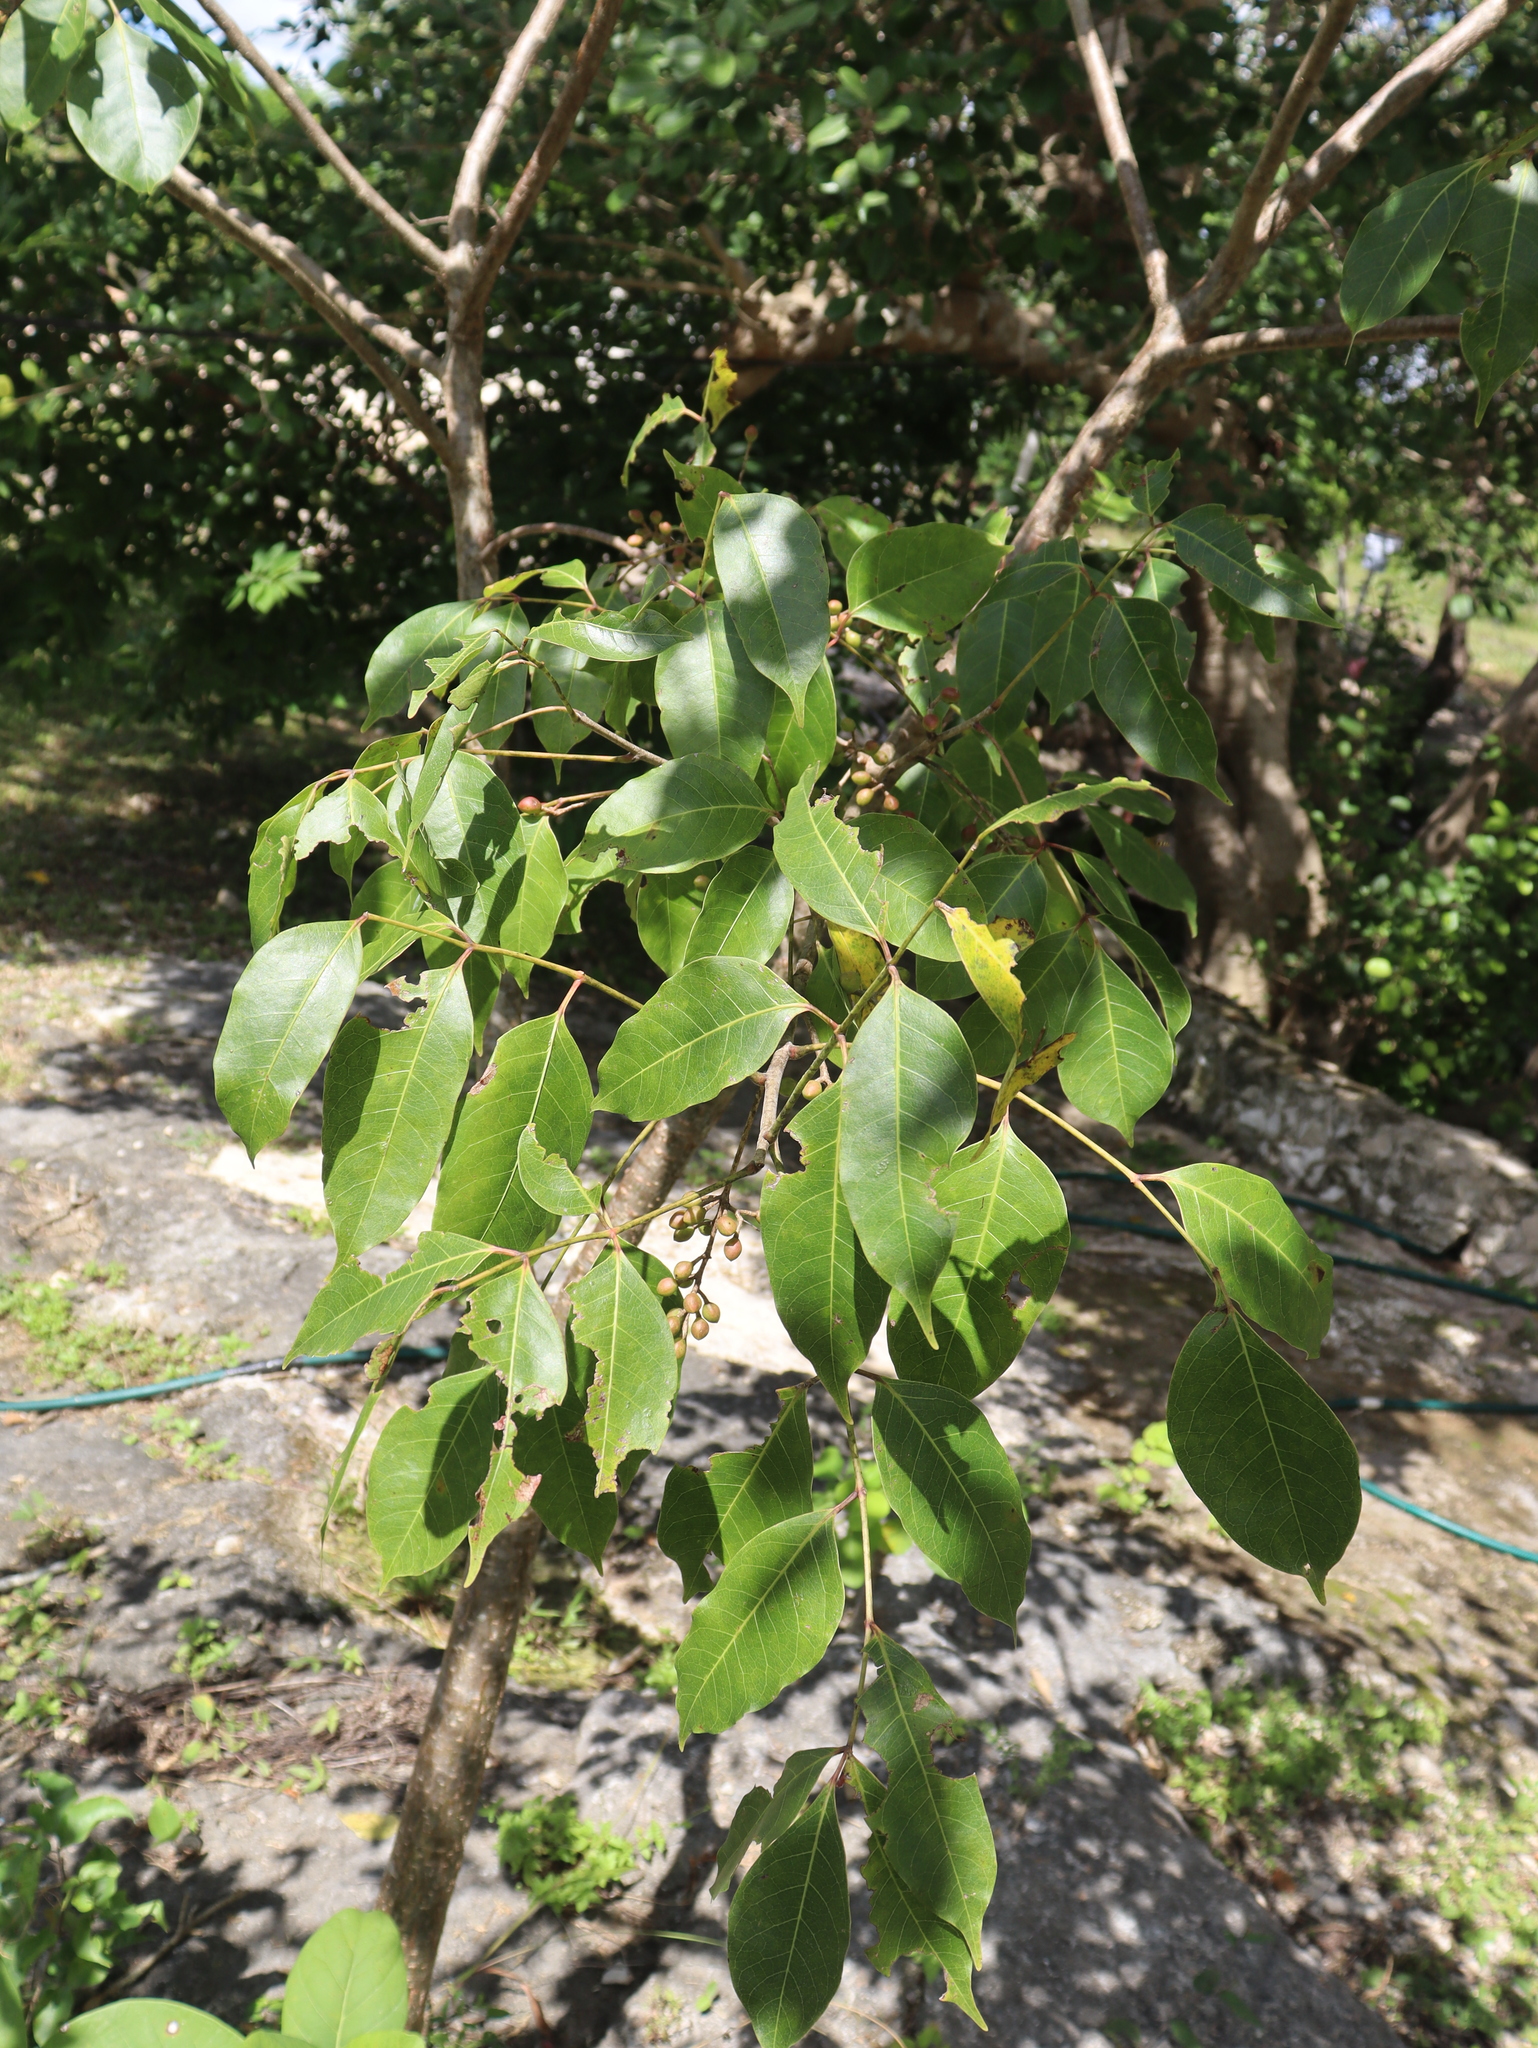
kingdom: Plantae
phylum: Tracheophyta
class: Magnoliopsida
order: Sapindales
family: Burseraceae
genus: Bursera
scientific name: Bursera simaruba
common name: Turpentine tree
